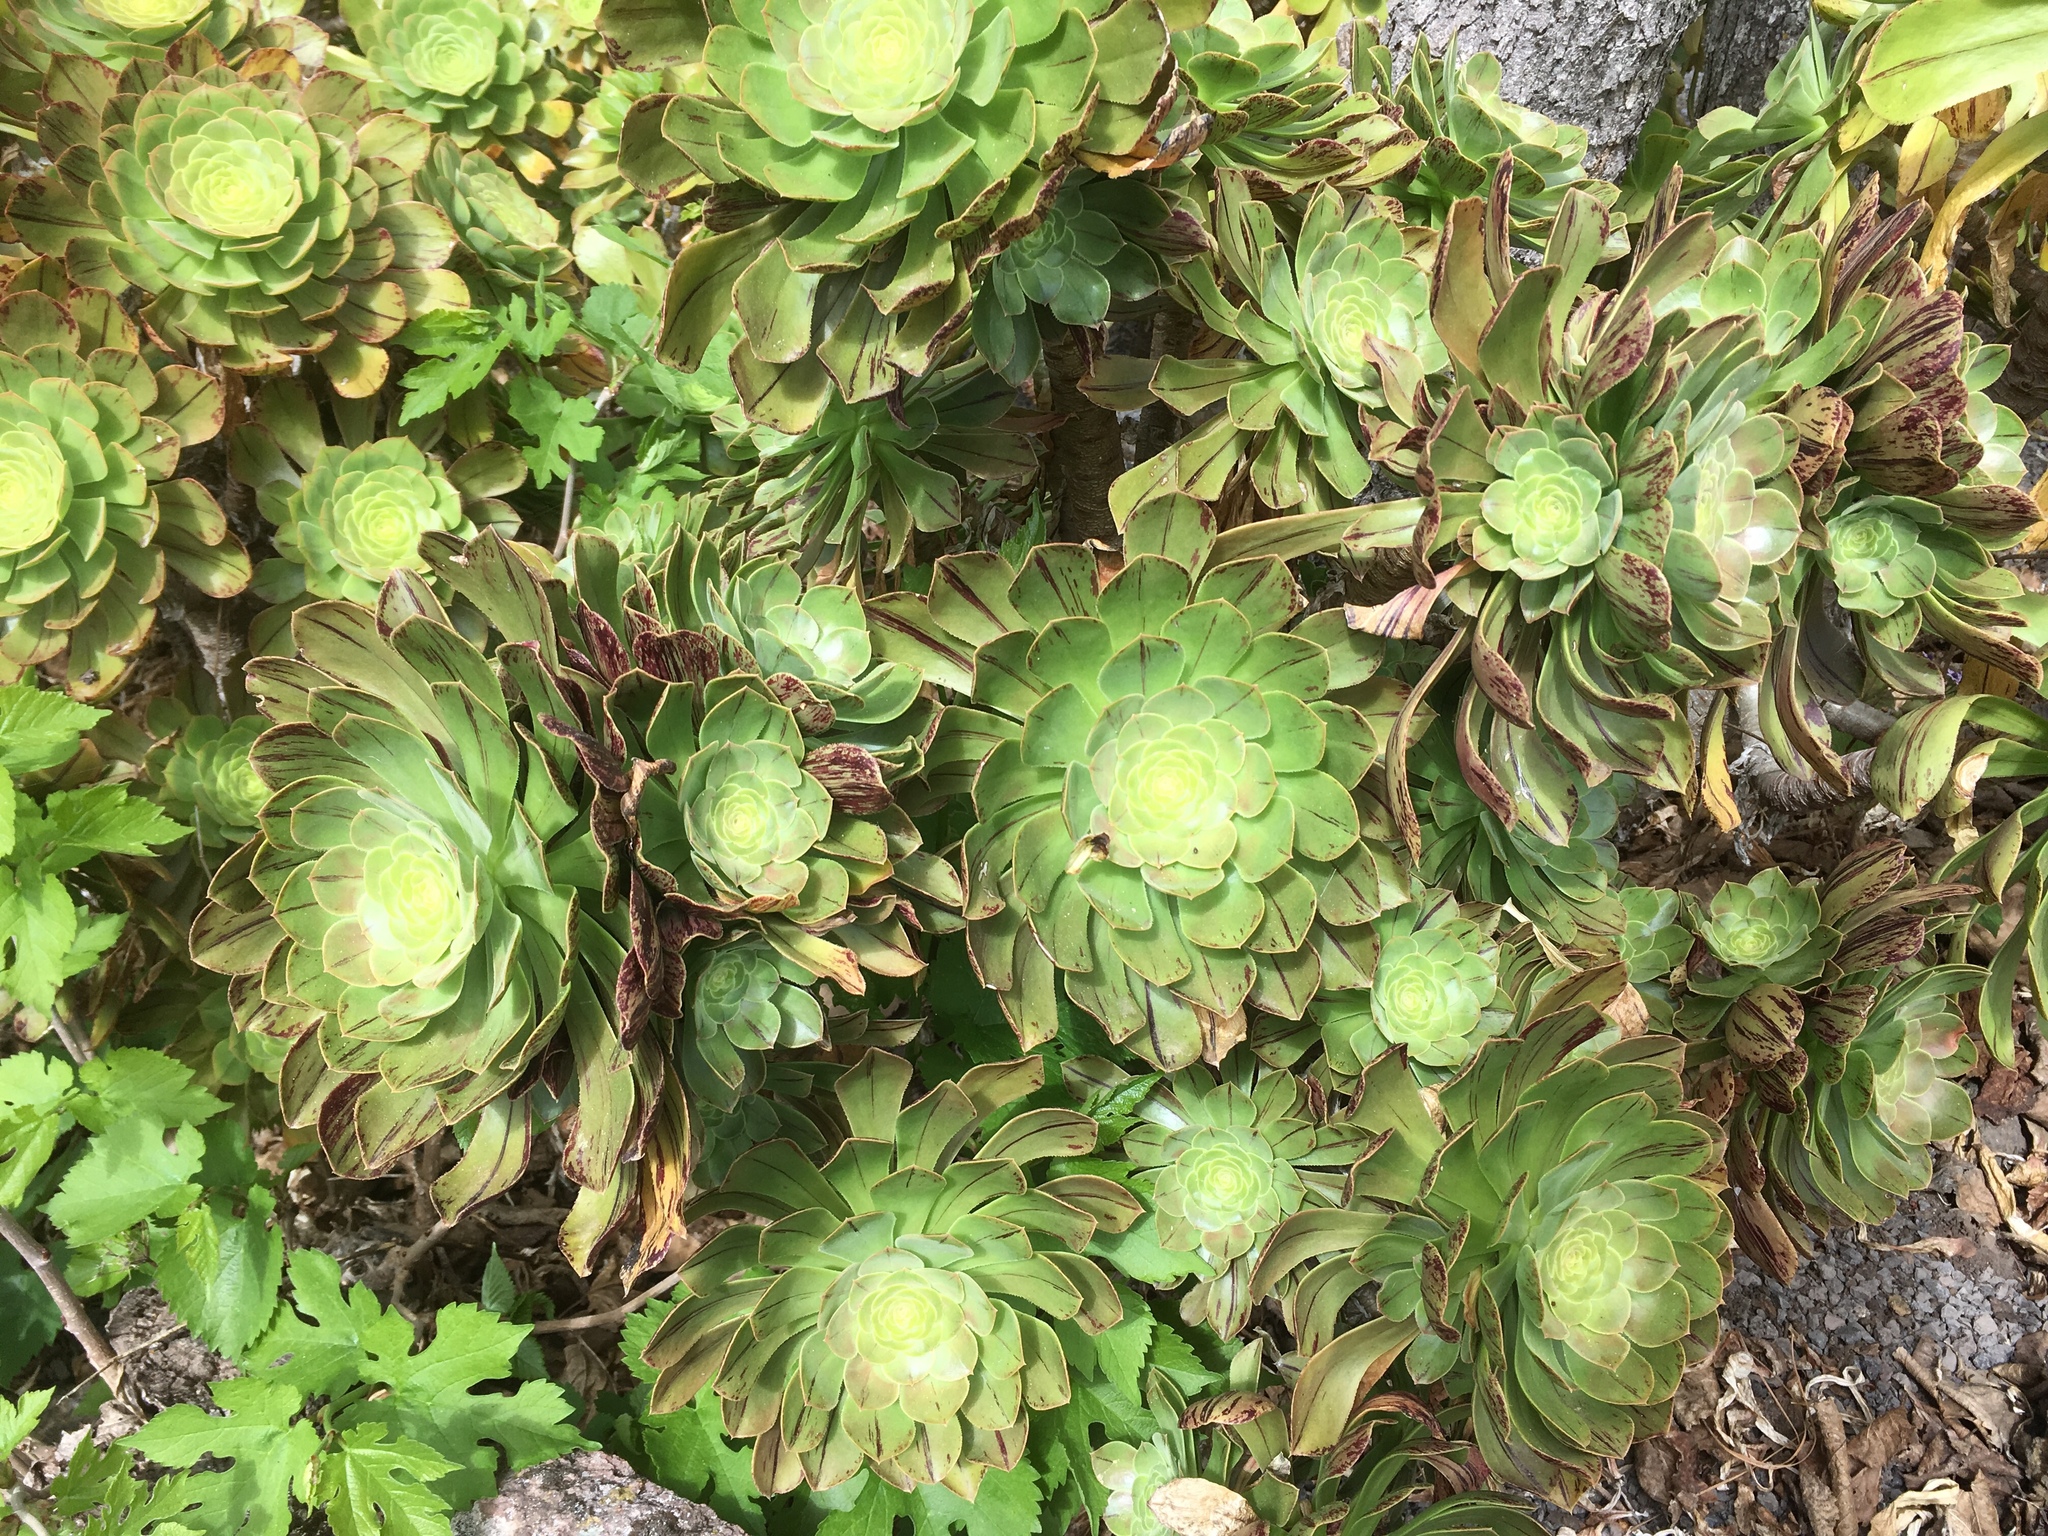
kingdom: Plantae
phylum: Tracheophyta
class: Magnoliopsida
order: Saxifragales
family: Crassulaceae
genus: Aeonium
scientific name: Aeonium arboreum
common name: Tree aeonium
